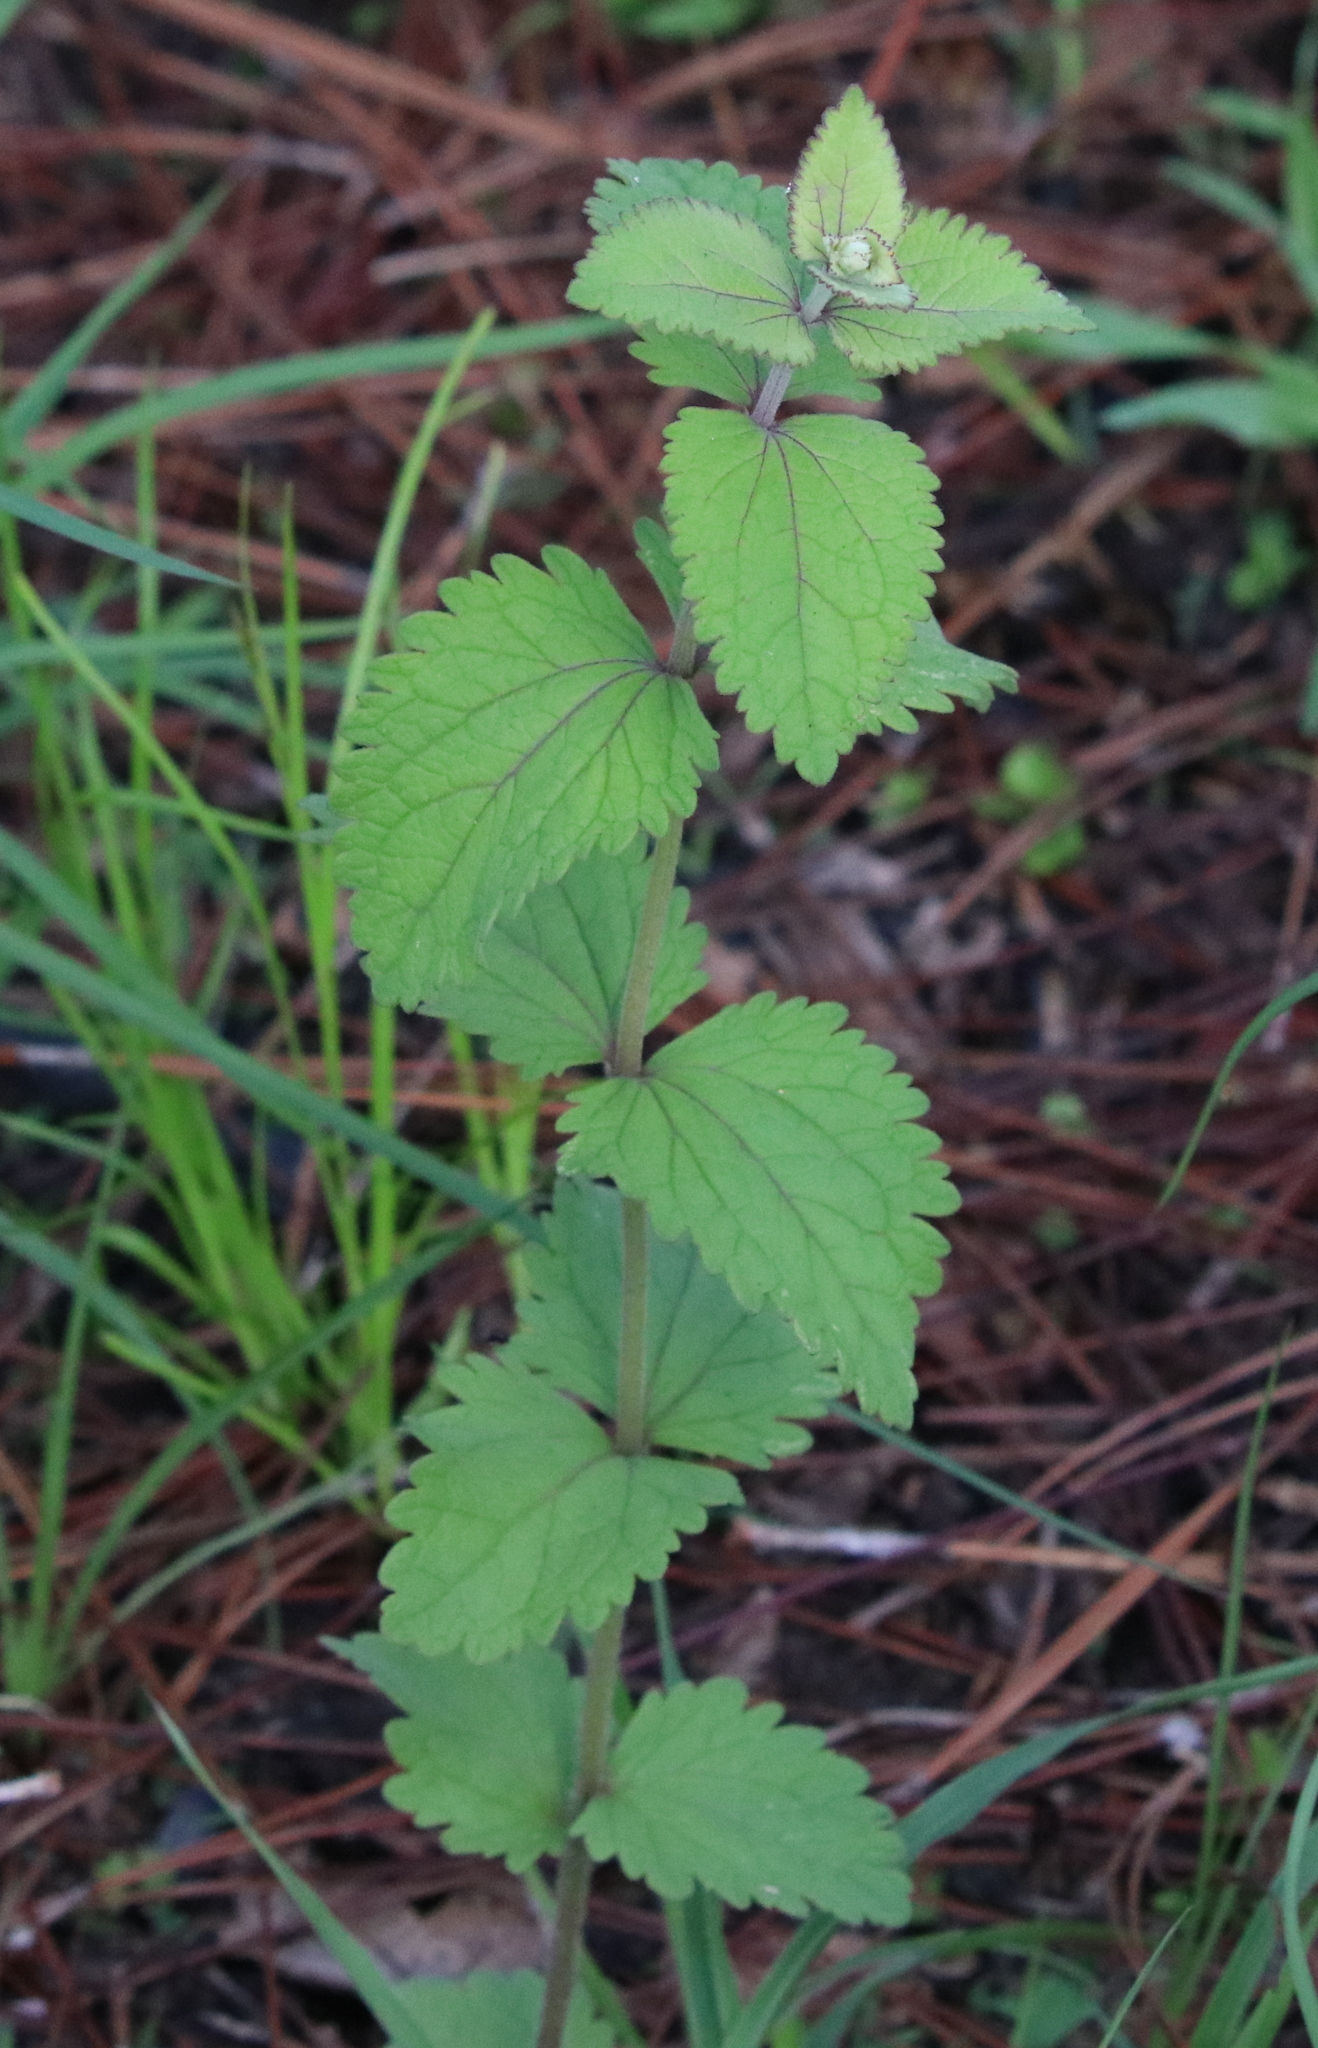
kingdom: Plantae
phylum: Tracheophyta
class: Magnoliopsida
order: Asterales
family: Asteraceae
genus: Eupatorium
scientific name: Eupatorium rotundifolium
